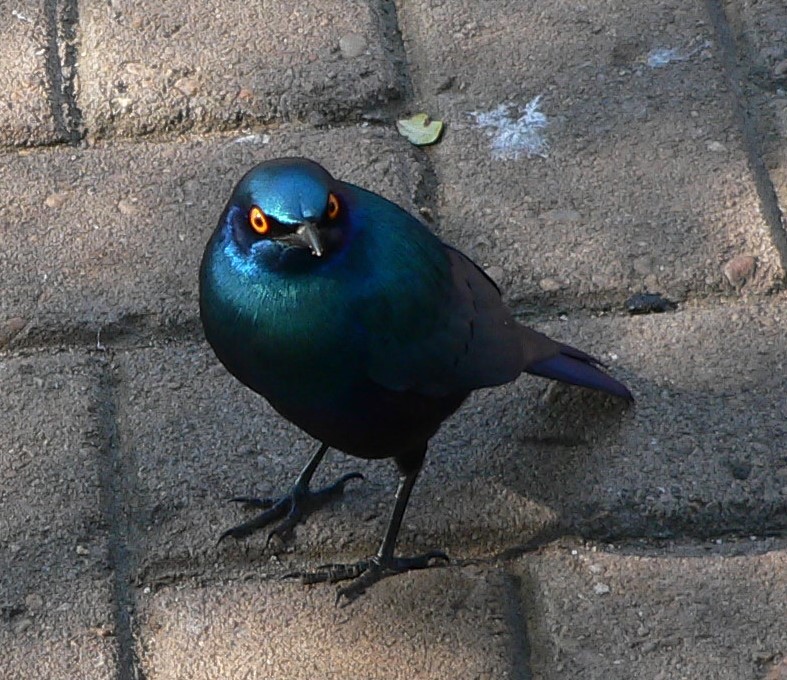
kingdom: Animalia
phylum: Chordata
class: Aves
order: Passeriformes
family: Sturnidae
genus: Lamprotornis
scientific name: Lamprotornis chalybaeus
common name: Greater blue-eared starling
